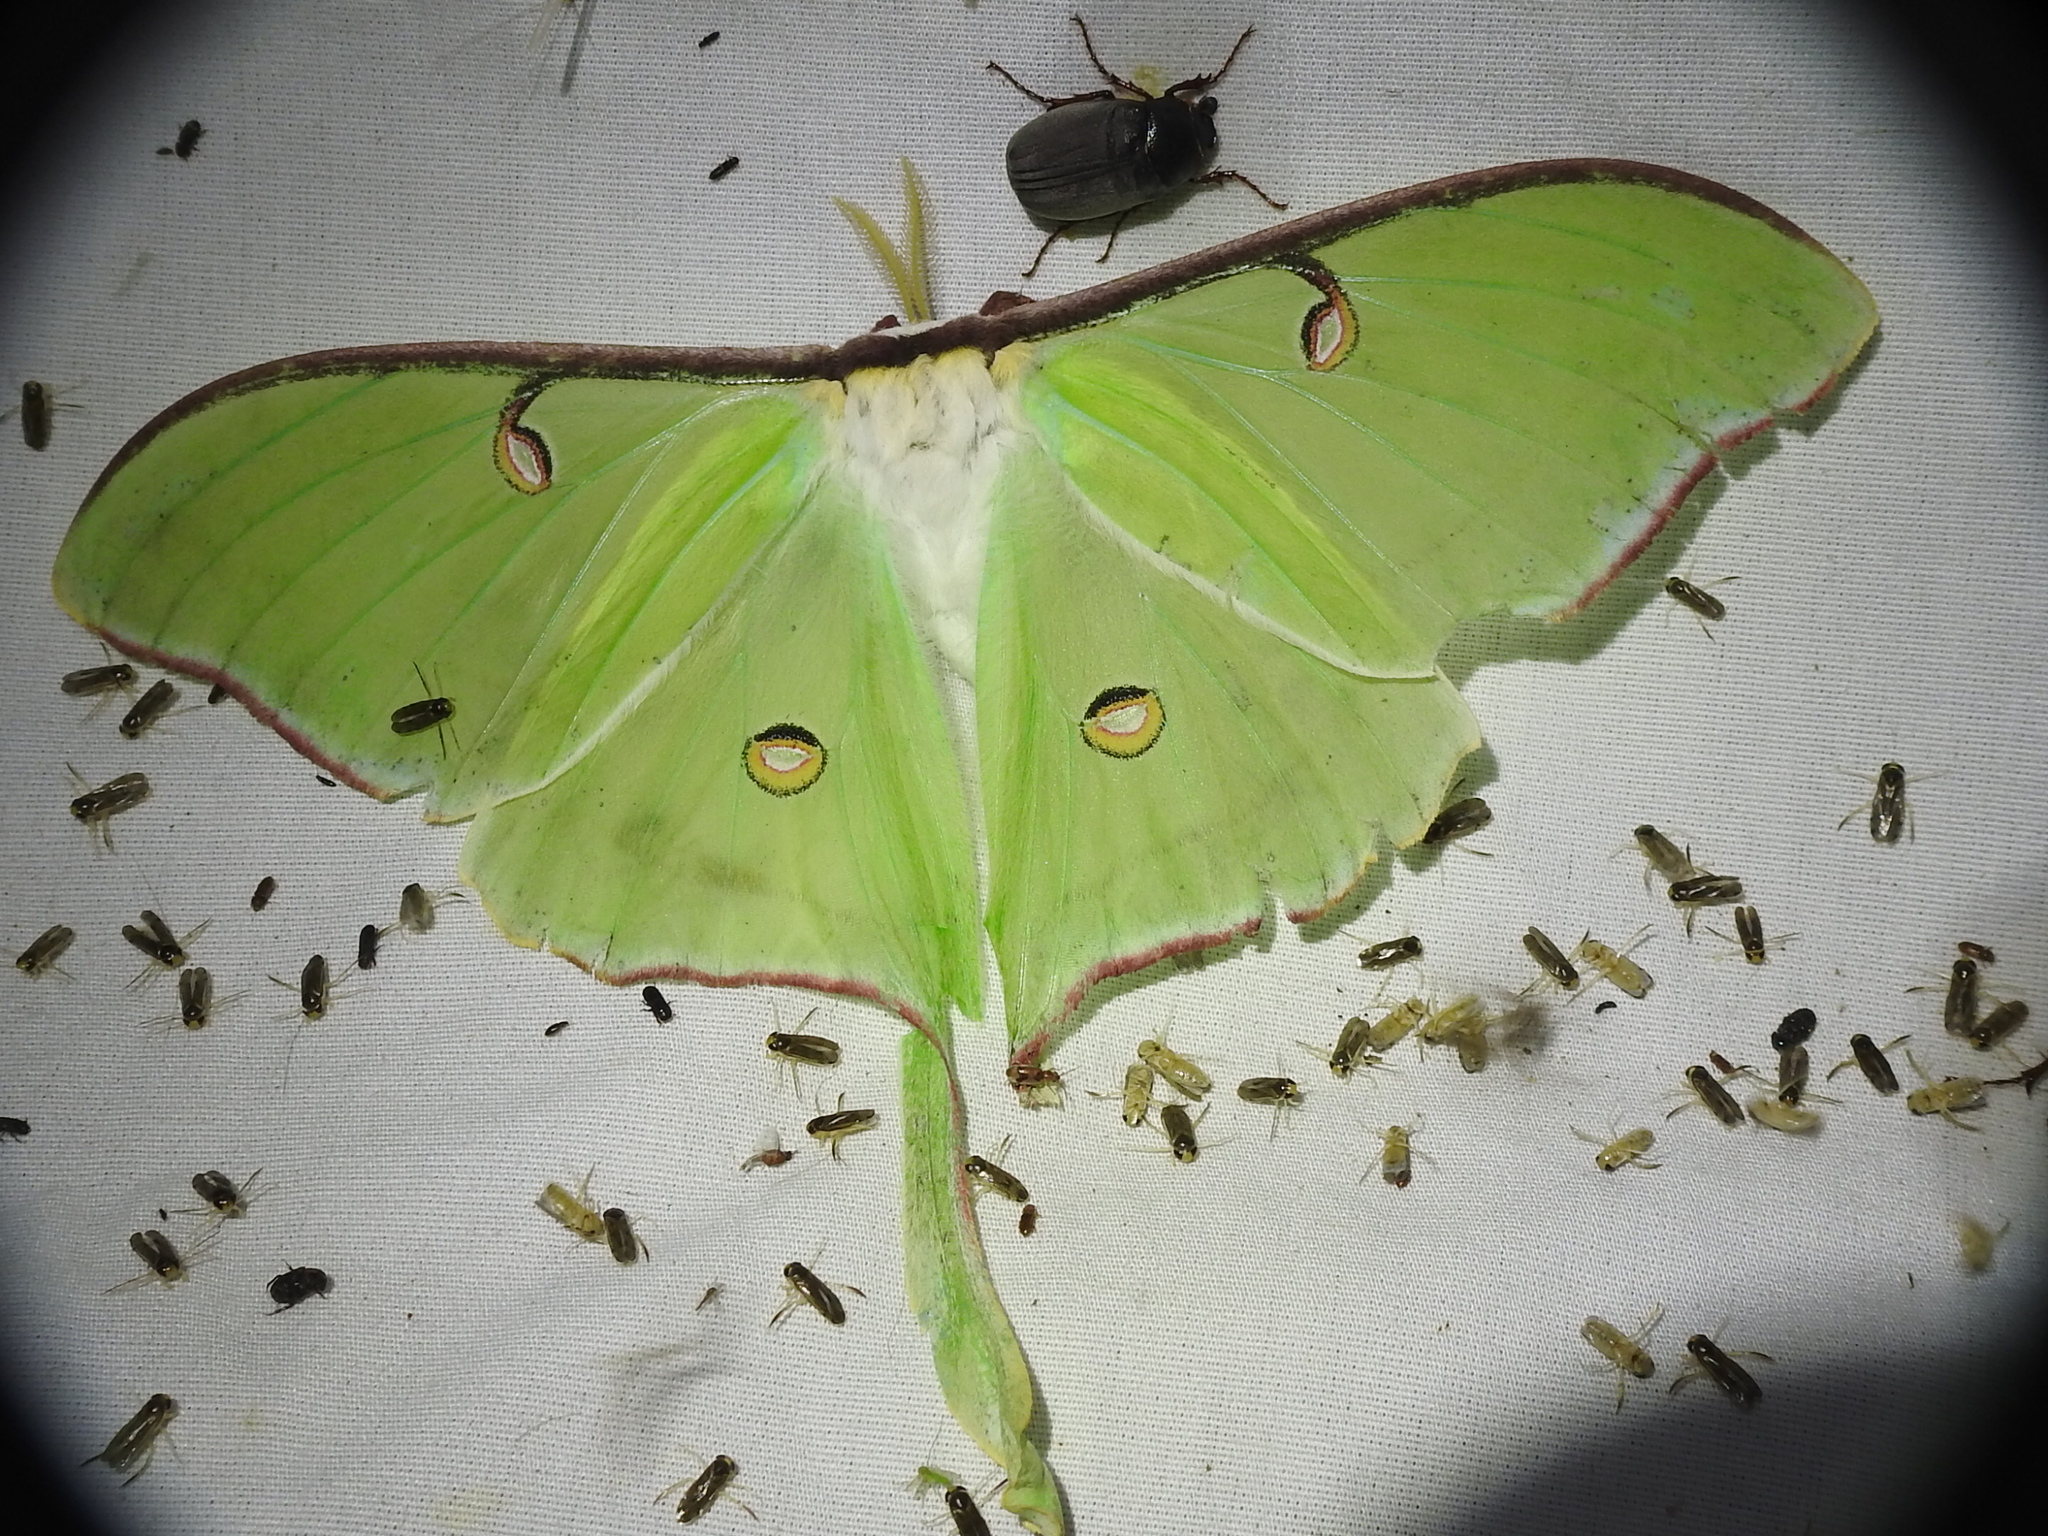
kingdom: Animalia
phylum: Arthropoda
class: Insecta
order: Lepidoptera
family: Saturniidae
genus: Actias
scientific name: Actias luna
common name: Luna moth
